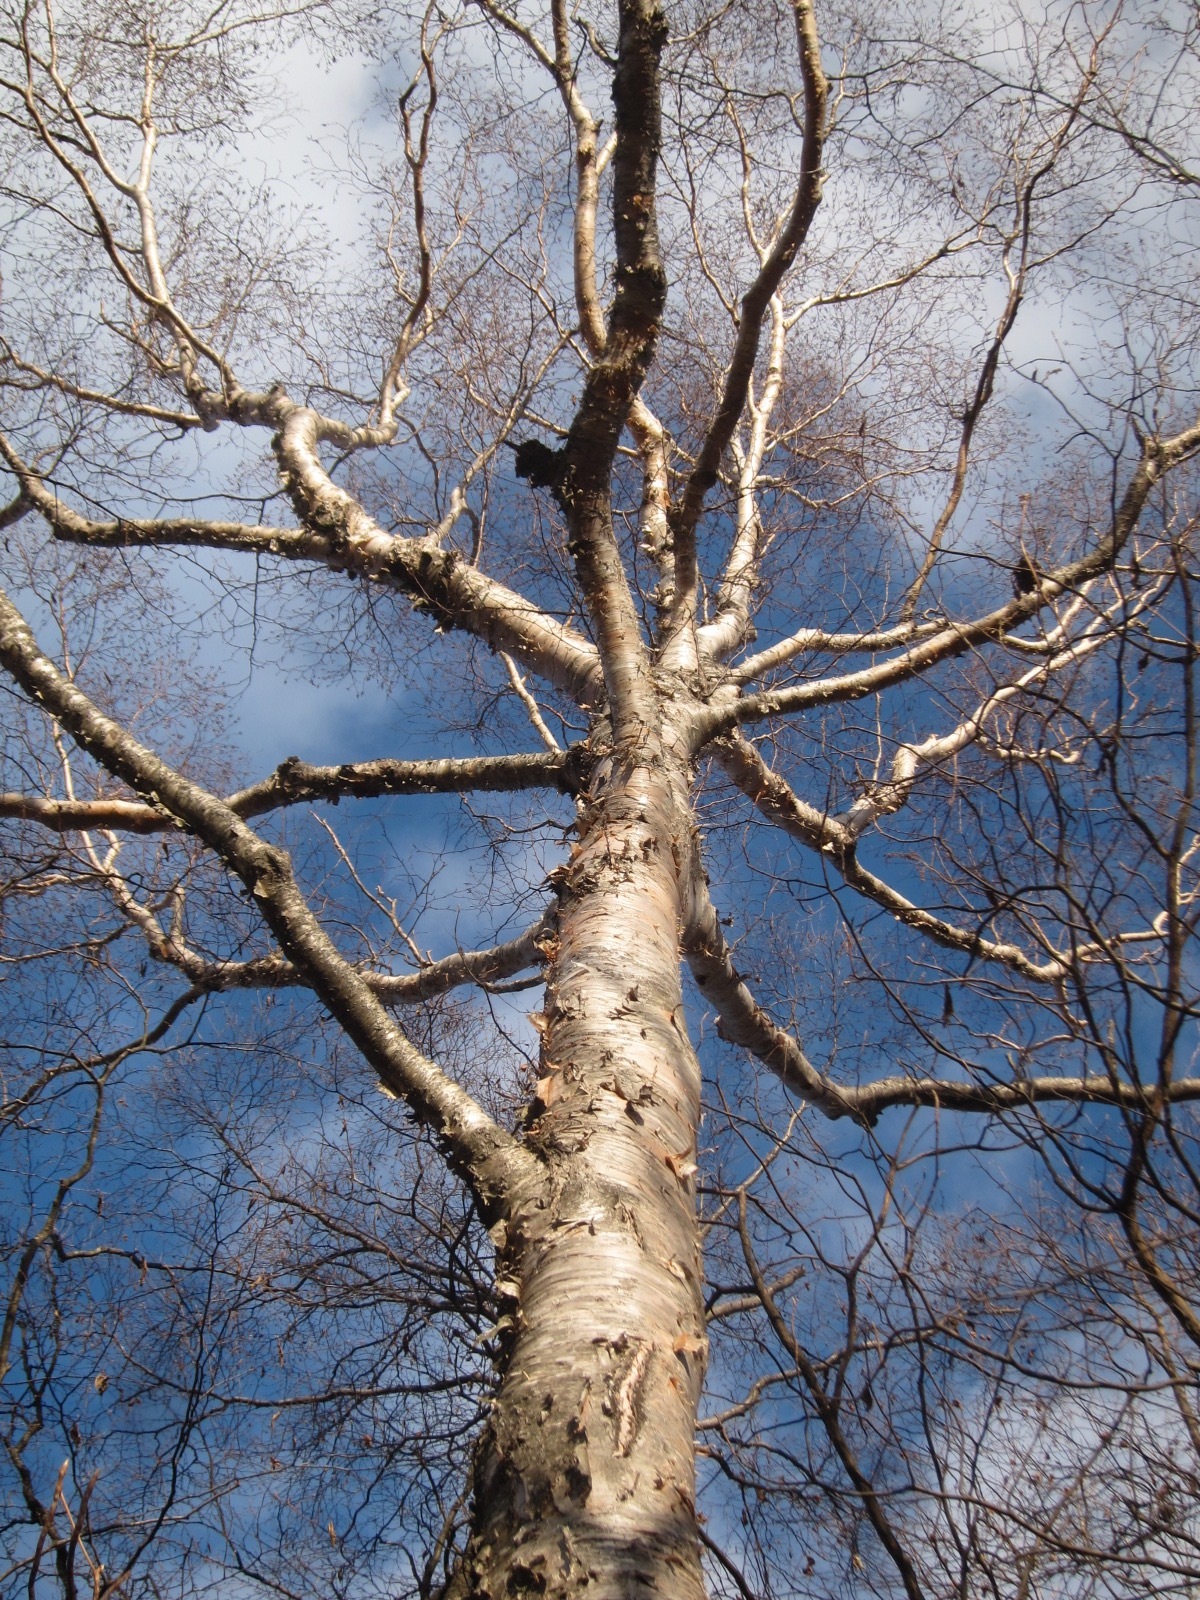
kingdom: Plantae
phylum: Tracheophyta
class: Magnoliopsida
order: Fagales
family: Betulaceae
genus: Betula
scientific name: Betula ermanii
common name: Erman's birch
